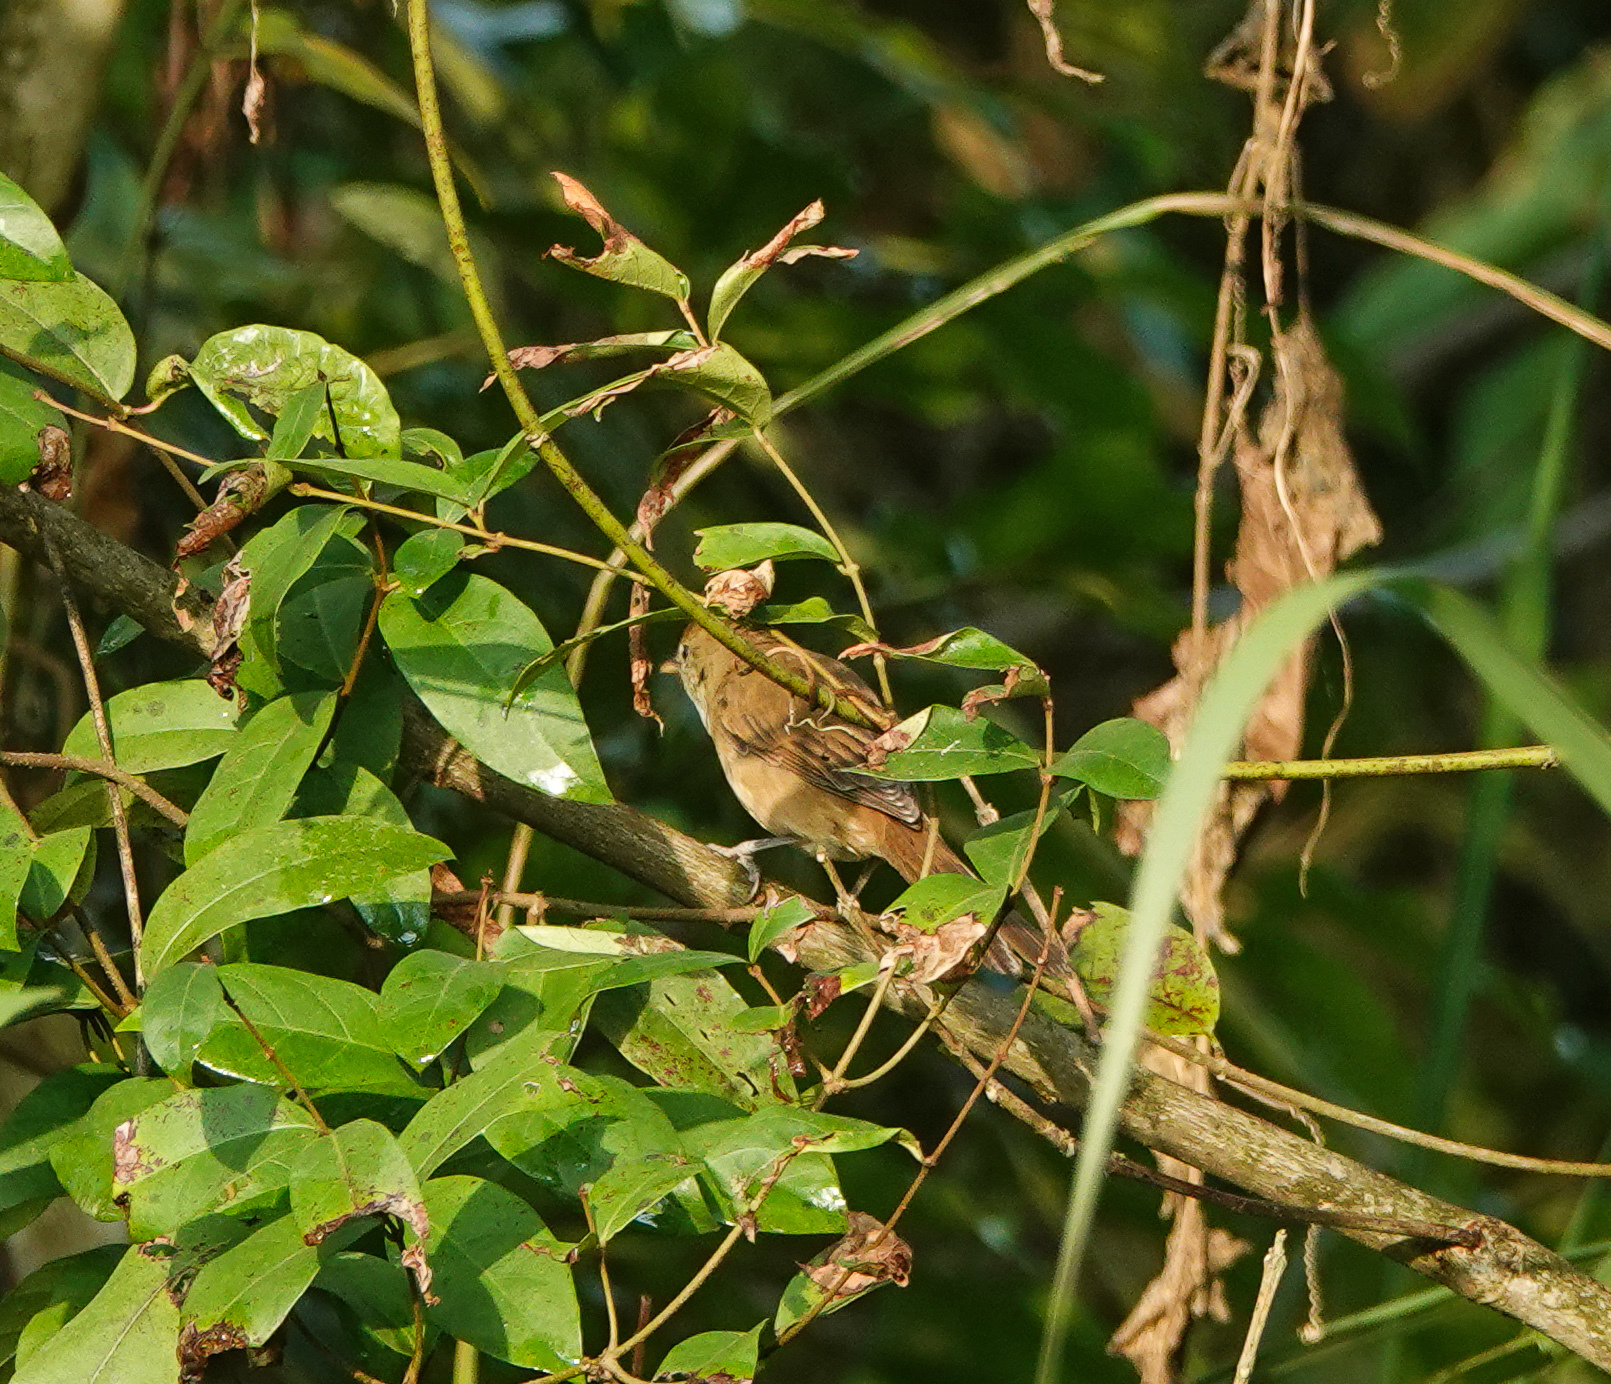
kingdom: Animalia
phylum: Chordata
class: Aves
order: Passeriformes
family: Acrocephalidae
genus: Iduna
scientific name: Iduna aedon
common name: Thick-billed warbler
